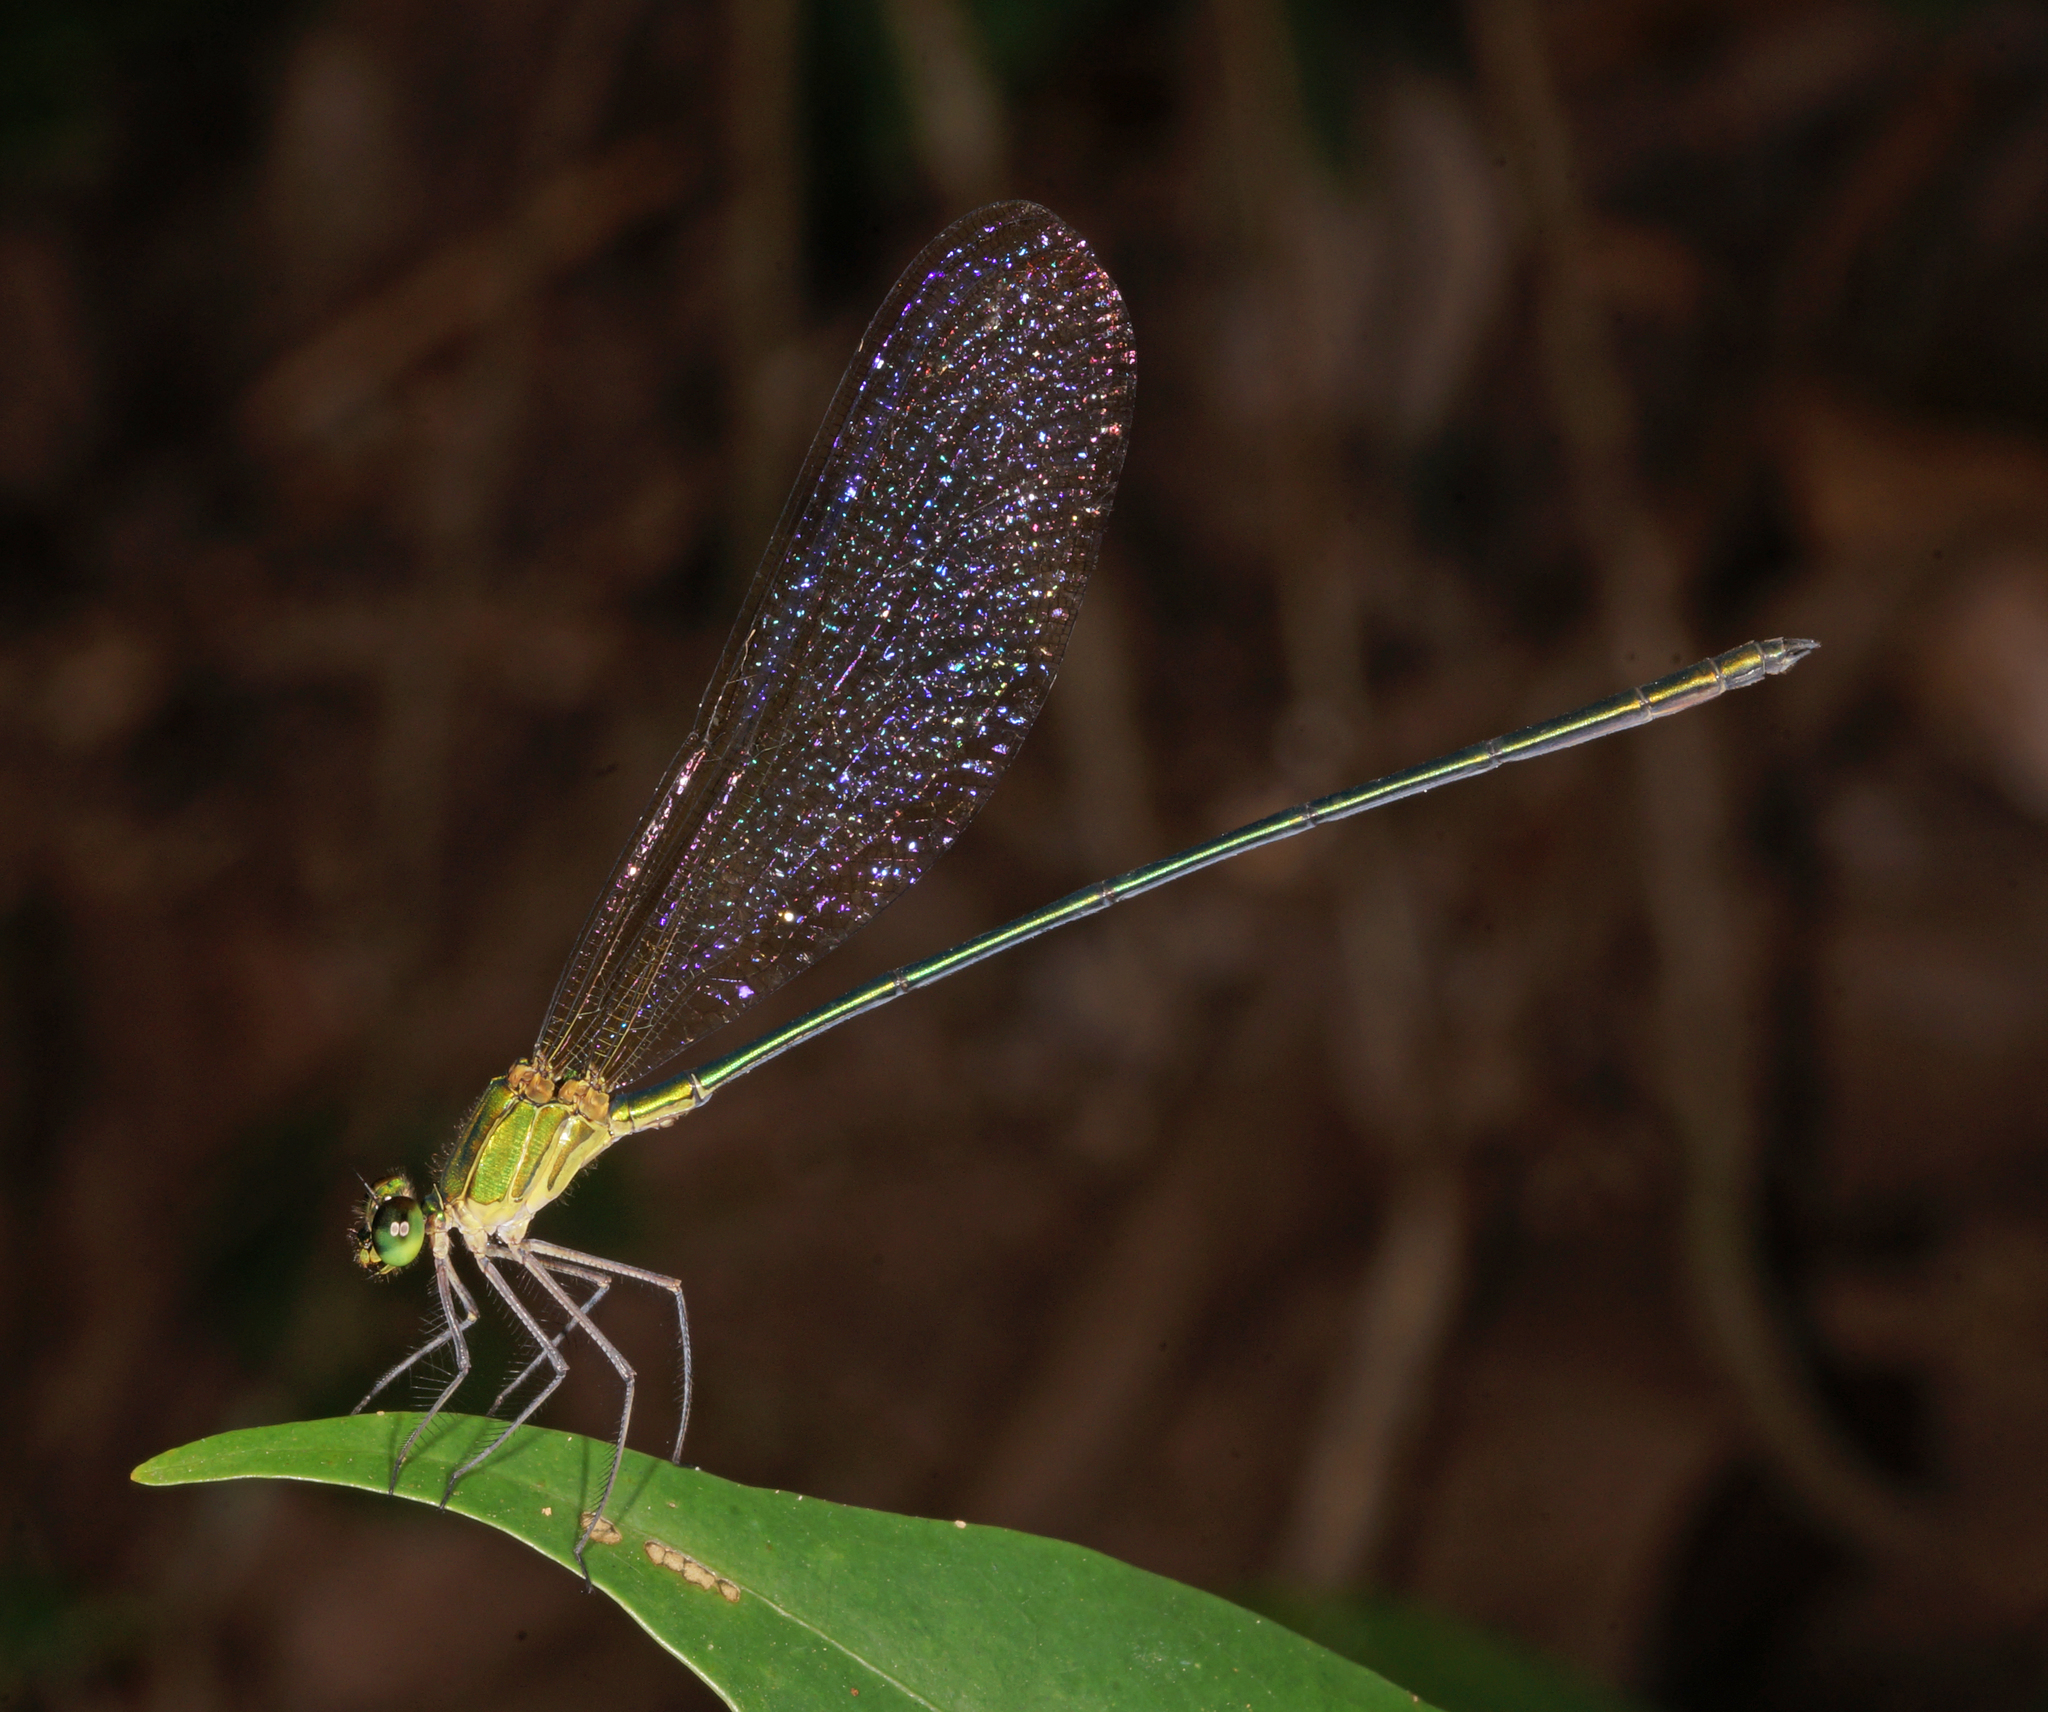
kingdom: Animalia
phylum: Arthropoda
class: Insecta
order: Odonata
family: Calopterygidae
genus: Vestalis
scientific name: Vestalis gracilis
